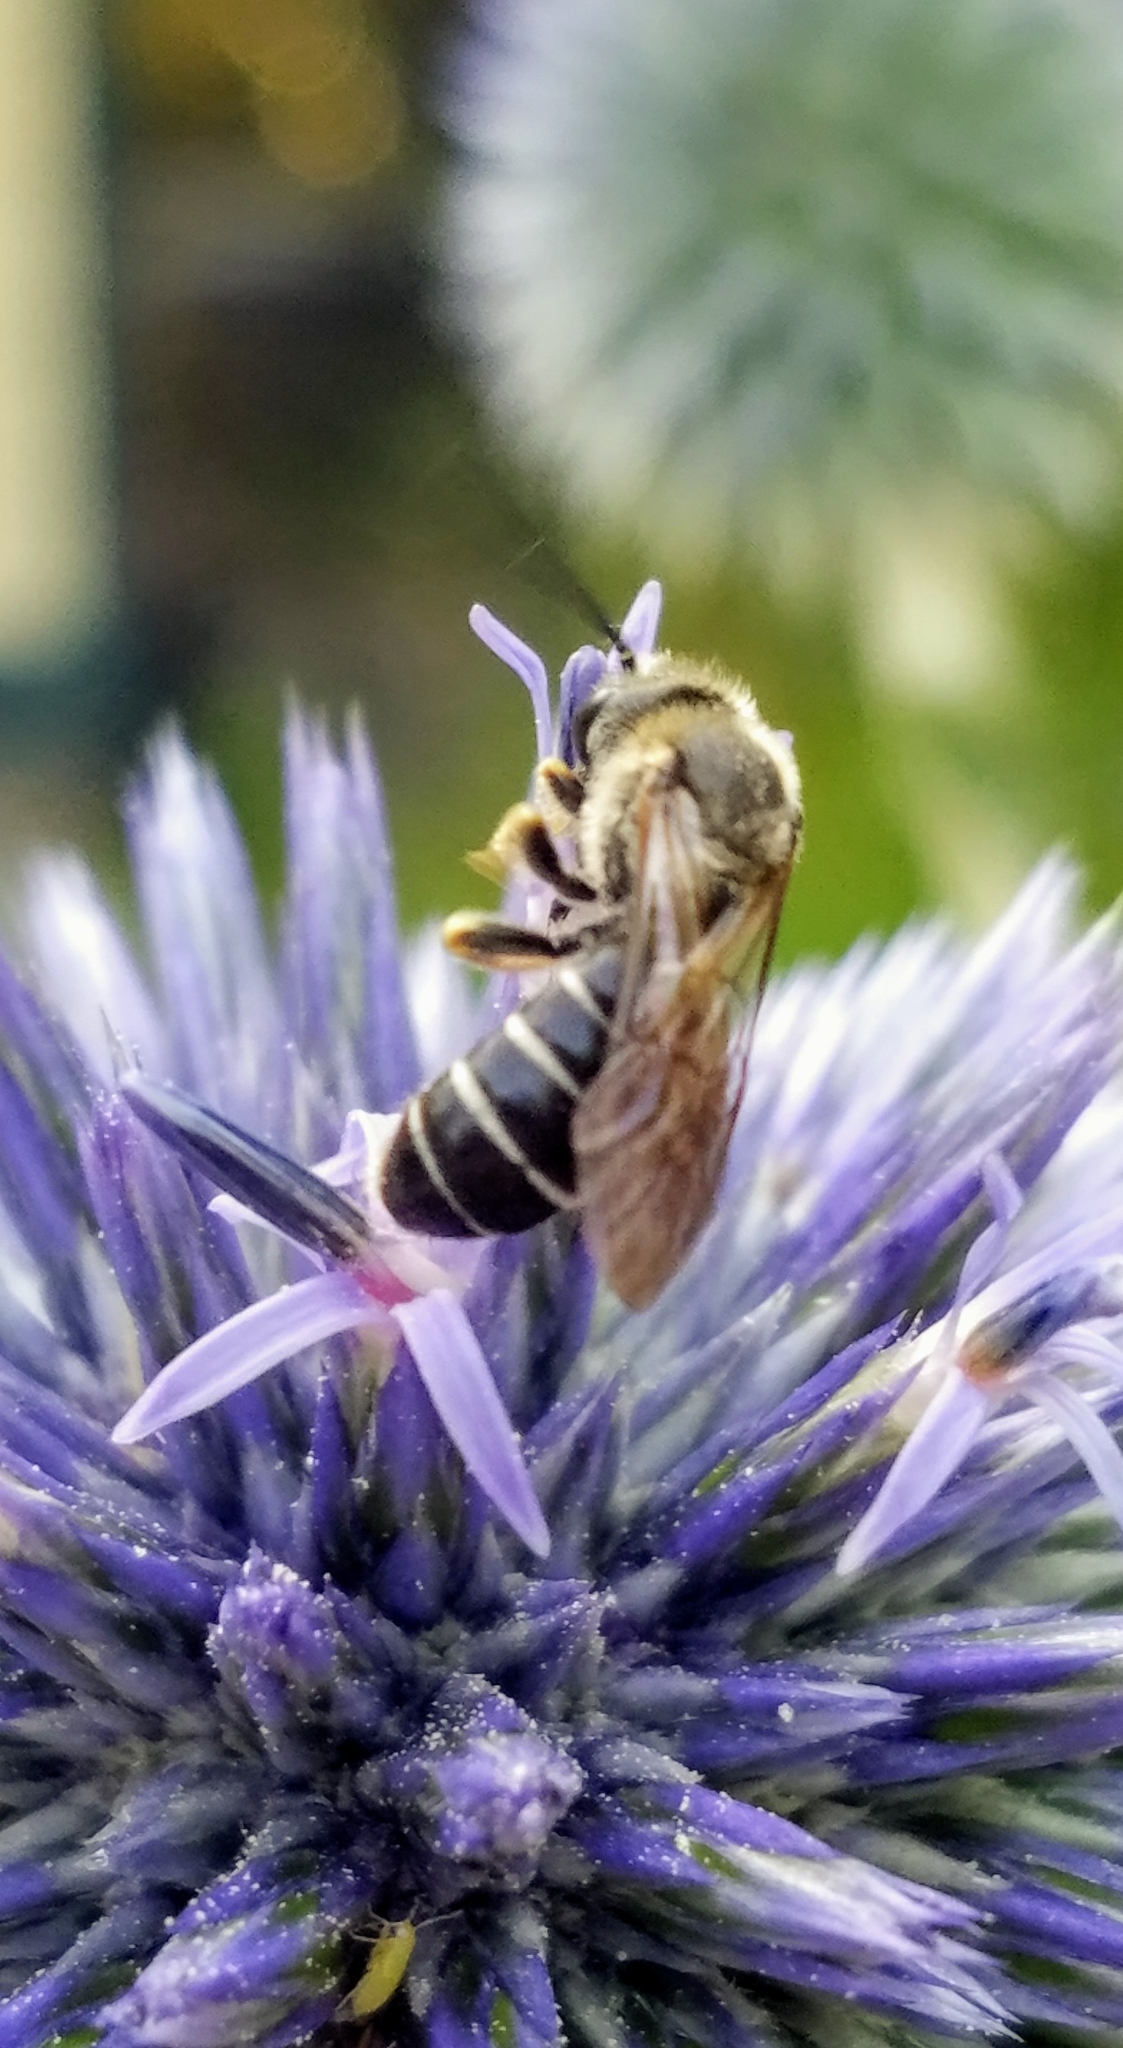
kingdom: Animalia
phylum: Arthropoda
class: Insecta
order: Hymenoptera
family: Halictidae
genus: Halictus
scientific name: Halictus rubicundus
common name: Orange-legged furrow bee
